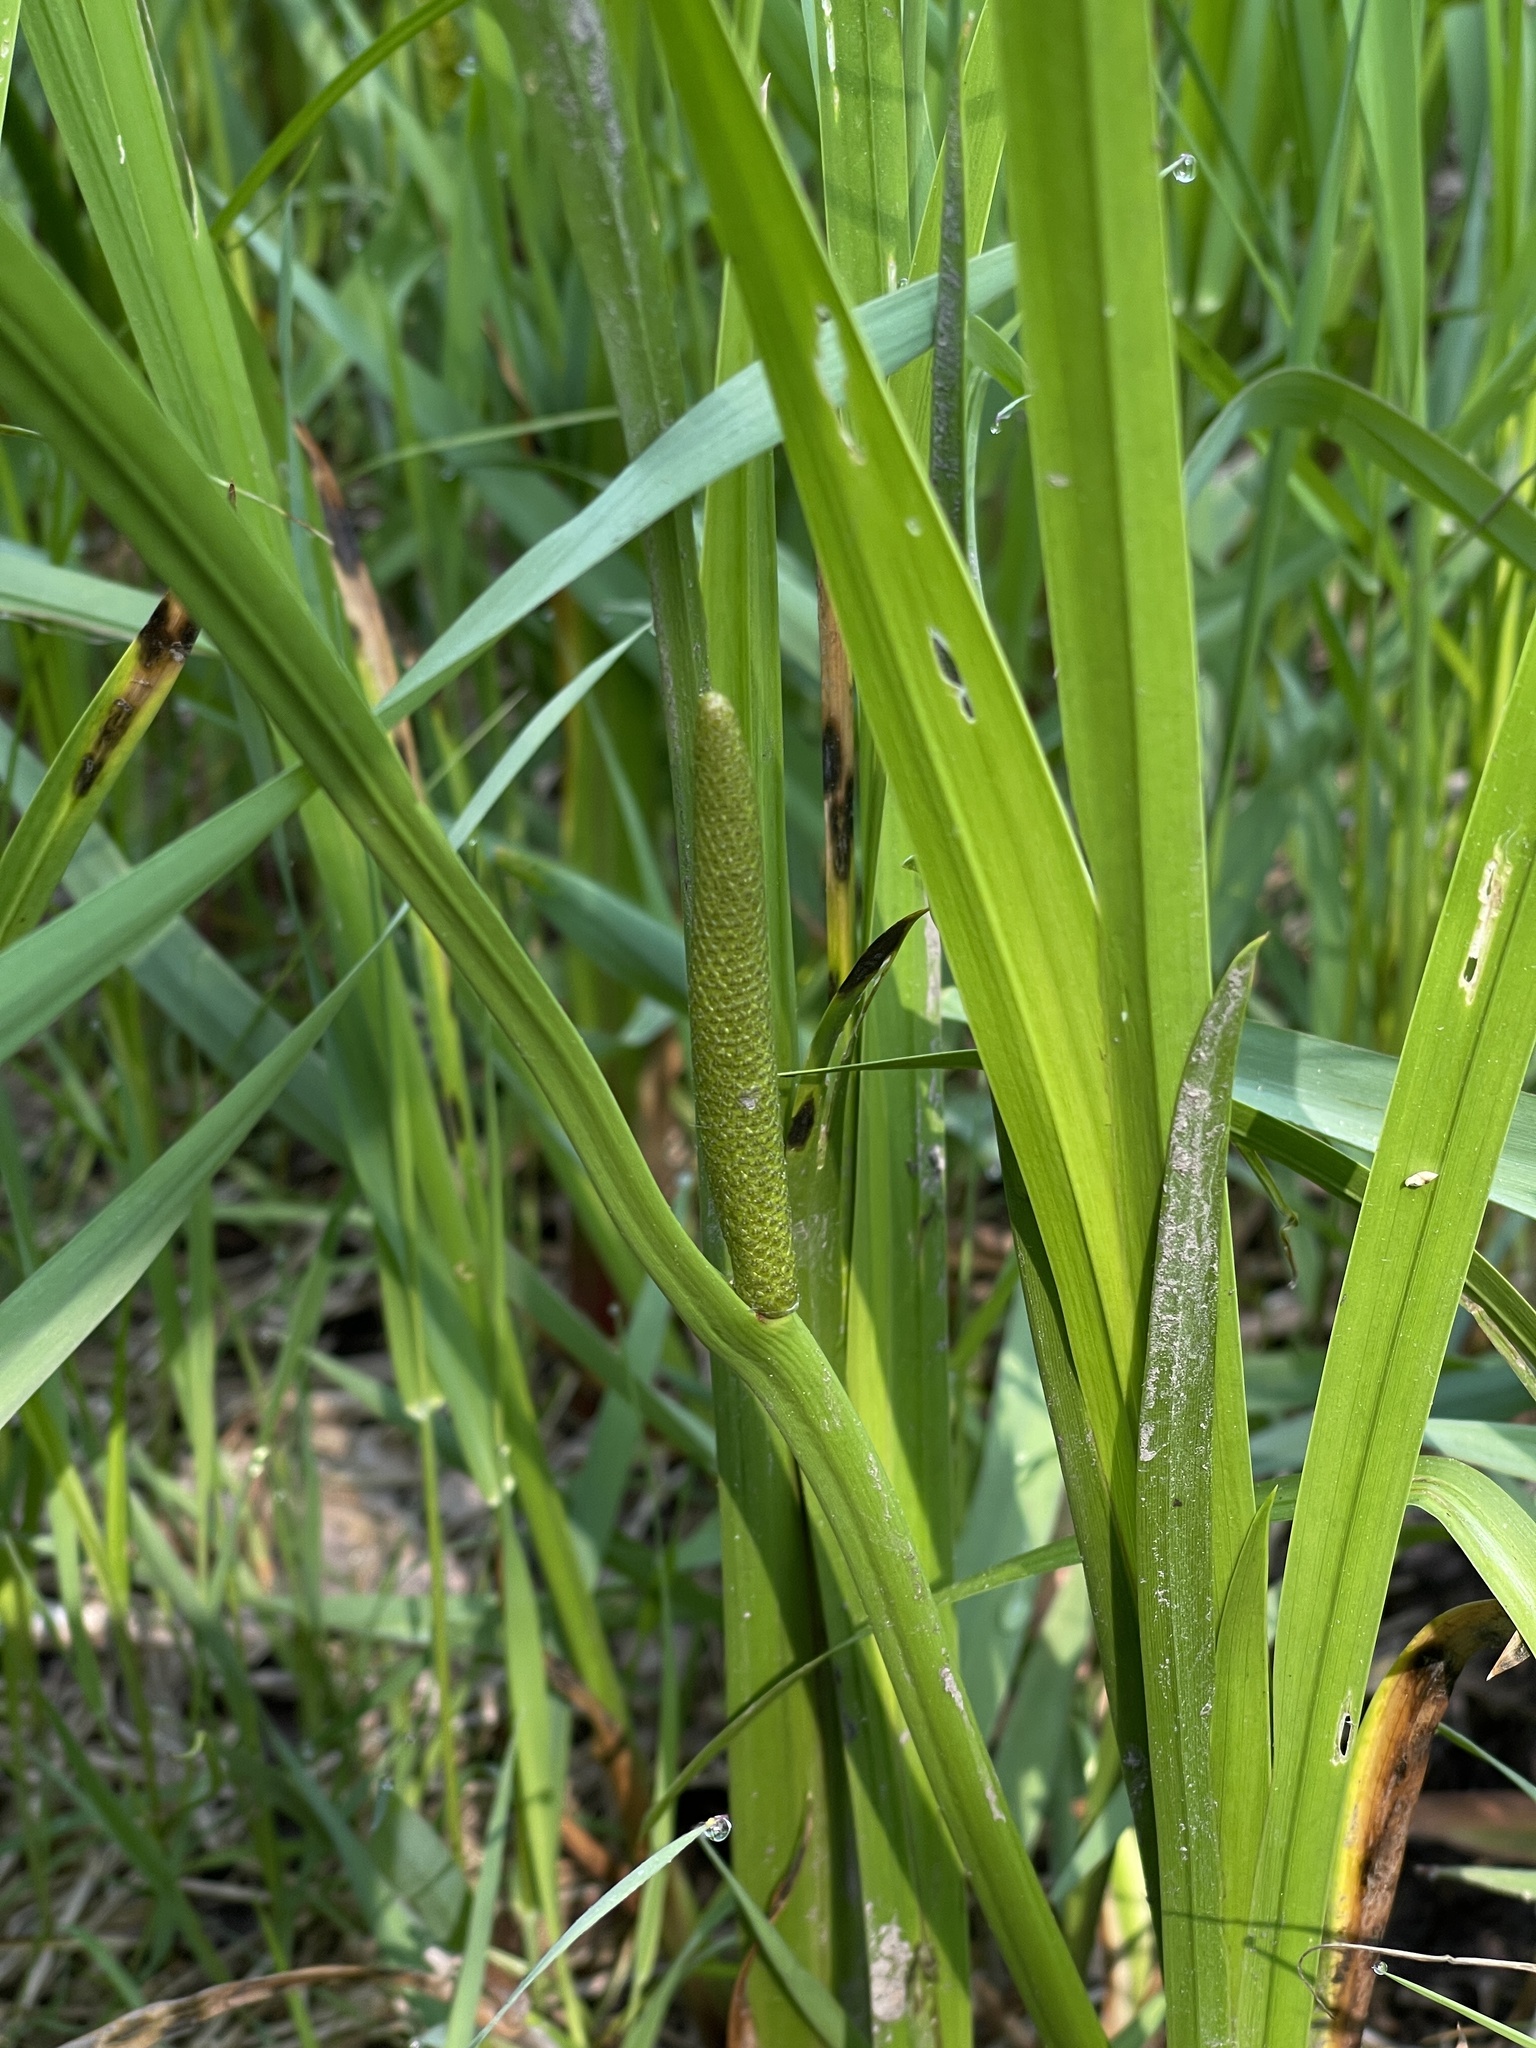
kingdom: Plantae
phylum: Tracheophyta
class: Liliopsida
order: Acorales
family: Acoraceae
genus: Acorus
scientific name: Acorus calamus
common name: Sweet-flag
